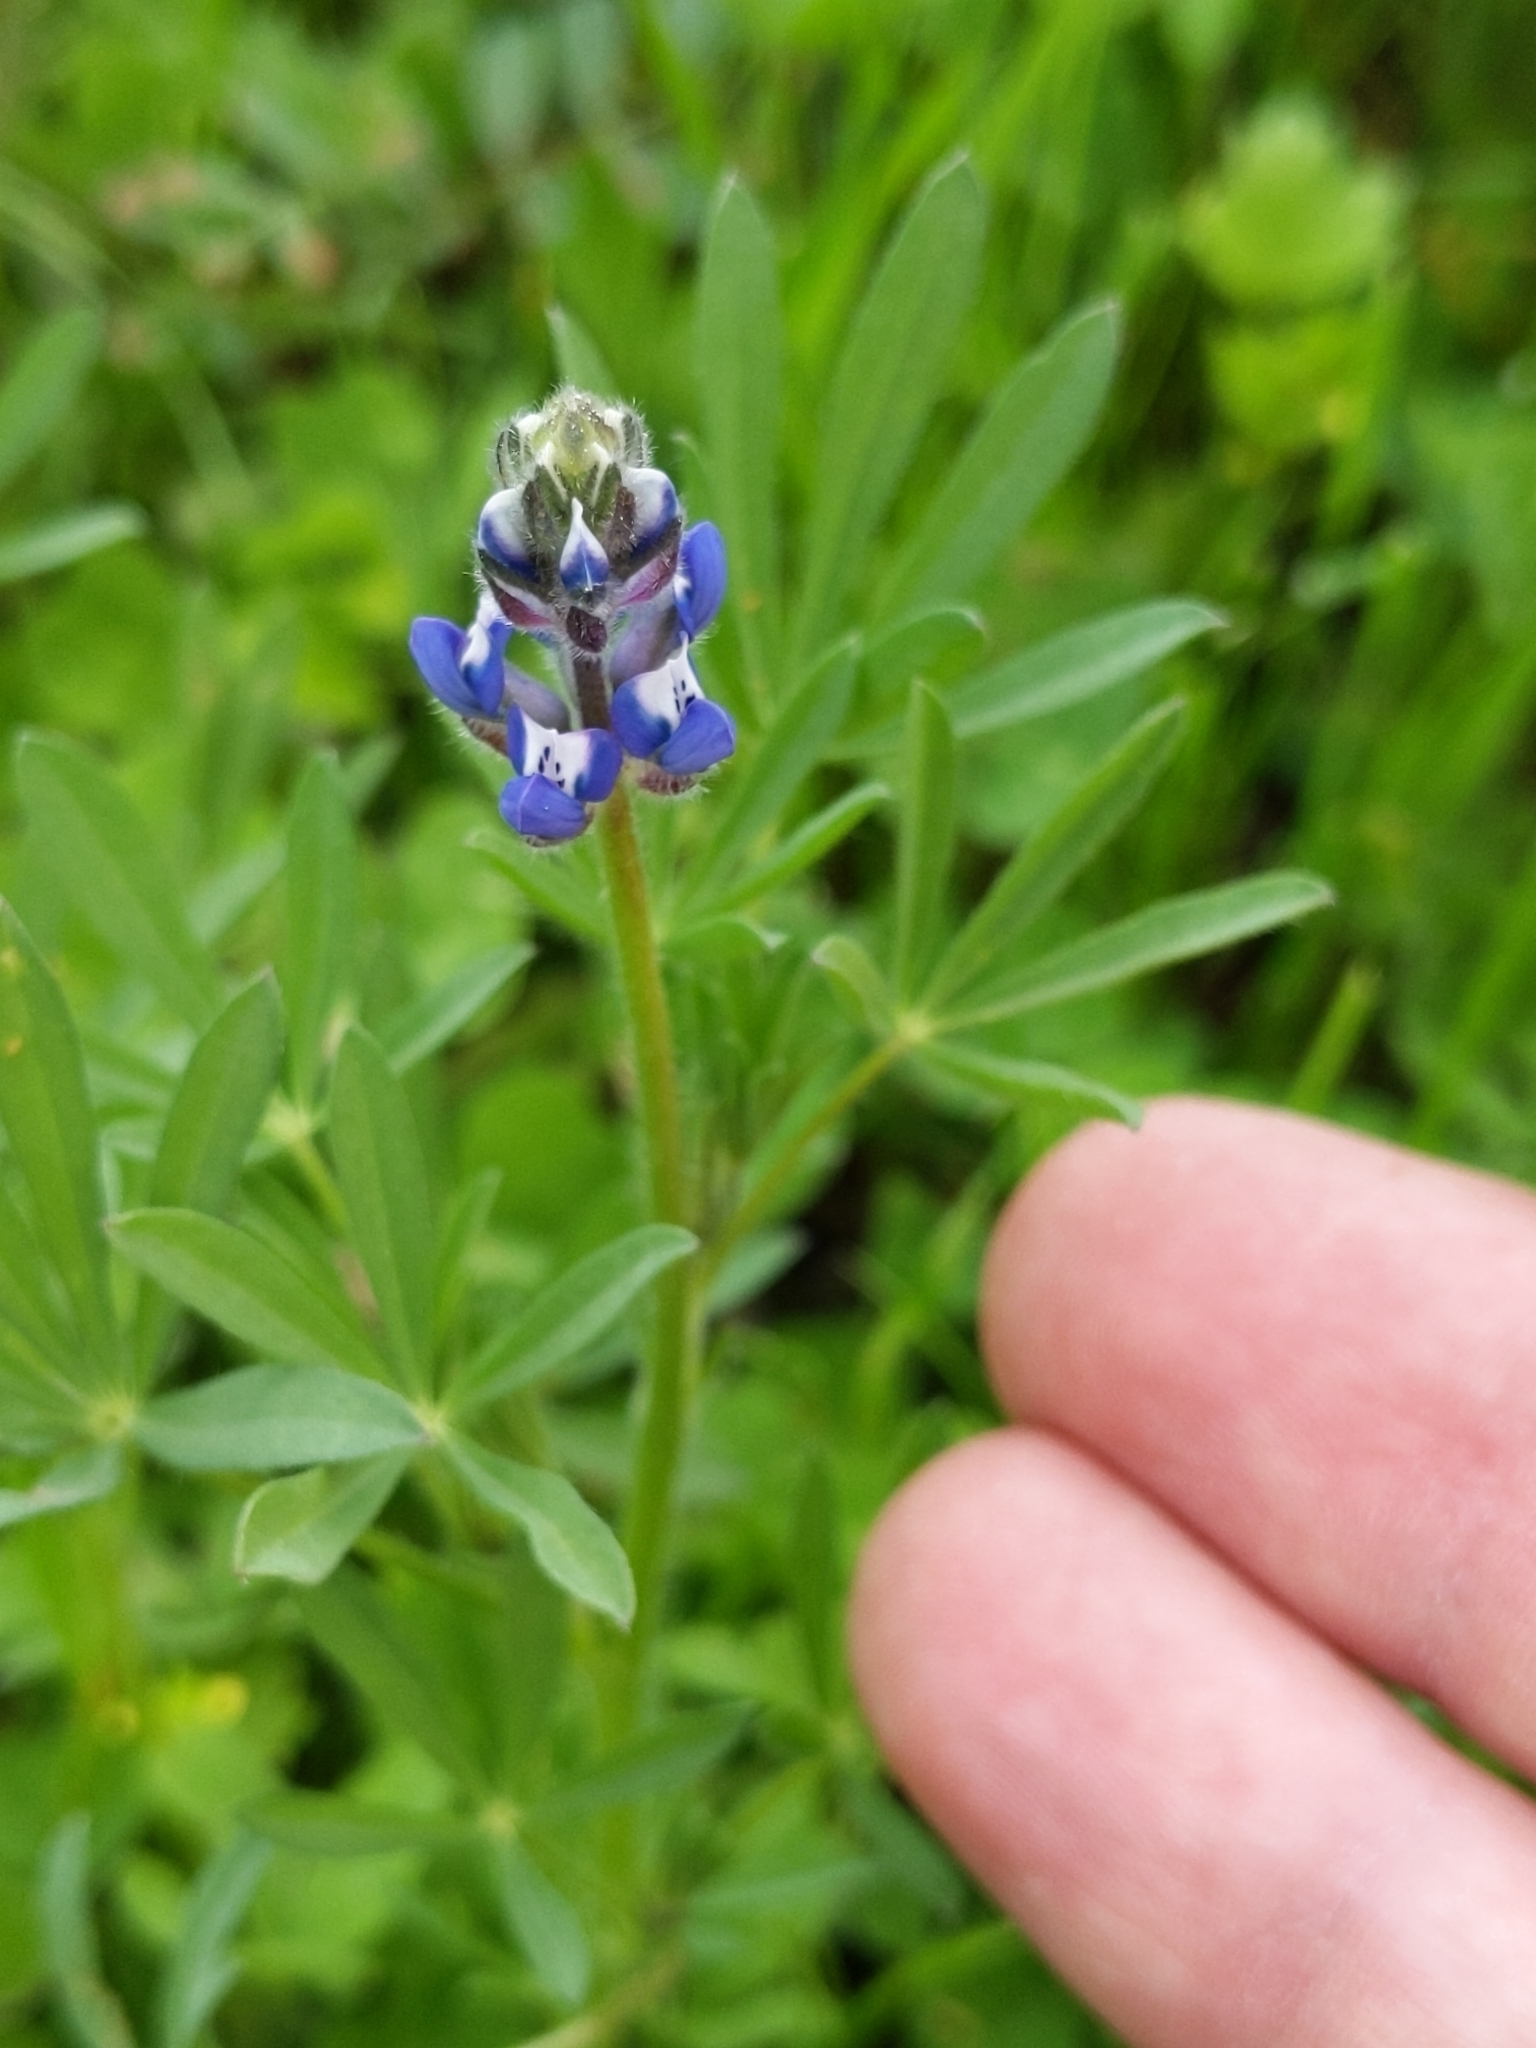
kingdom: Plantae
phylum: Tracheophyta
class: Magnoliopsida
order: Fabales
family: Fabaceae
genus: Lupinus
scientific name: Lupinus bicolor
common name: Miniature lupine
